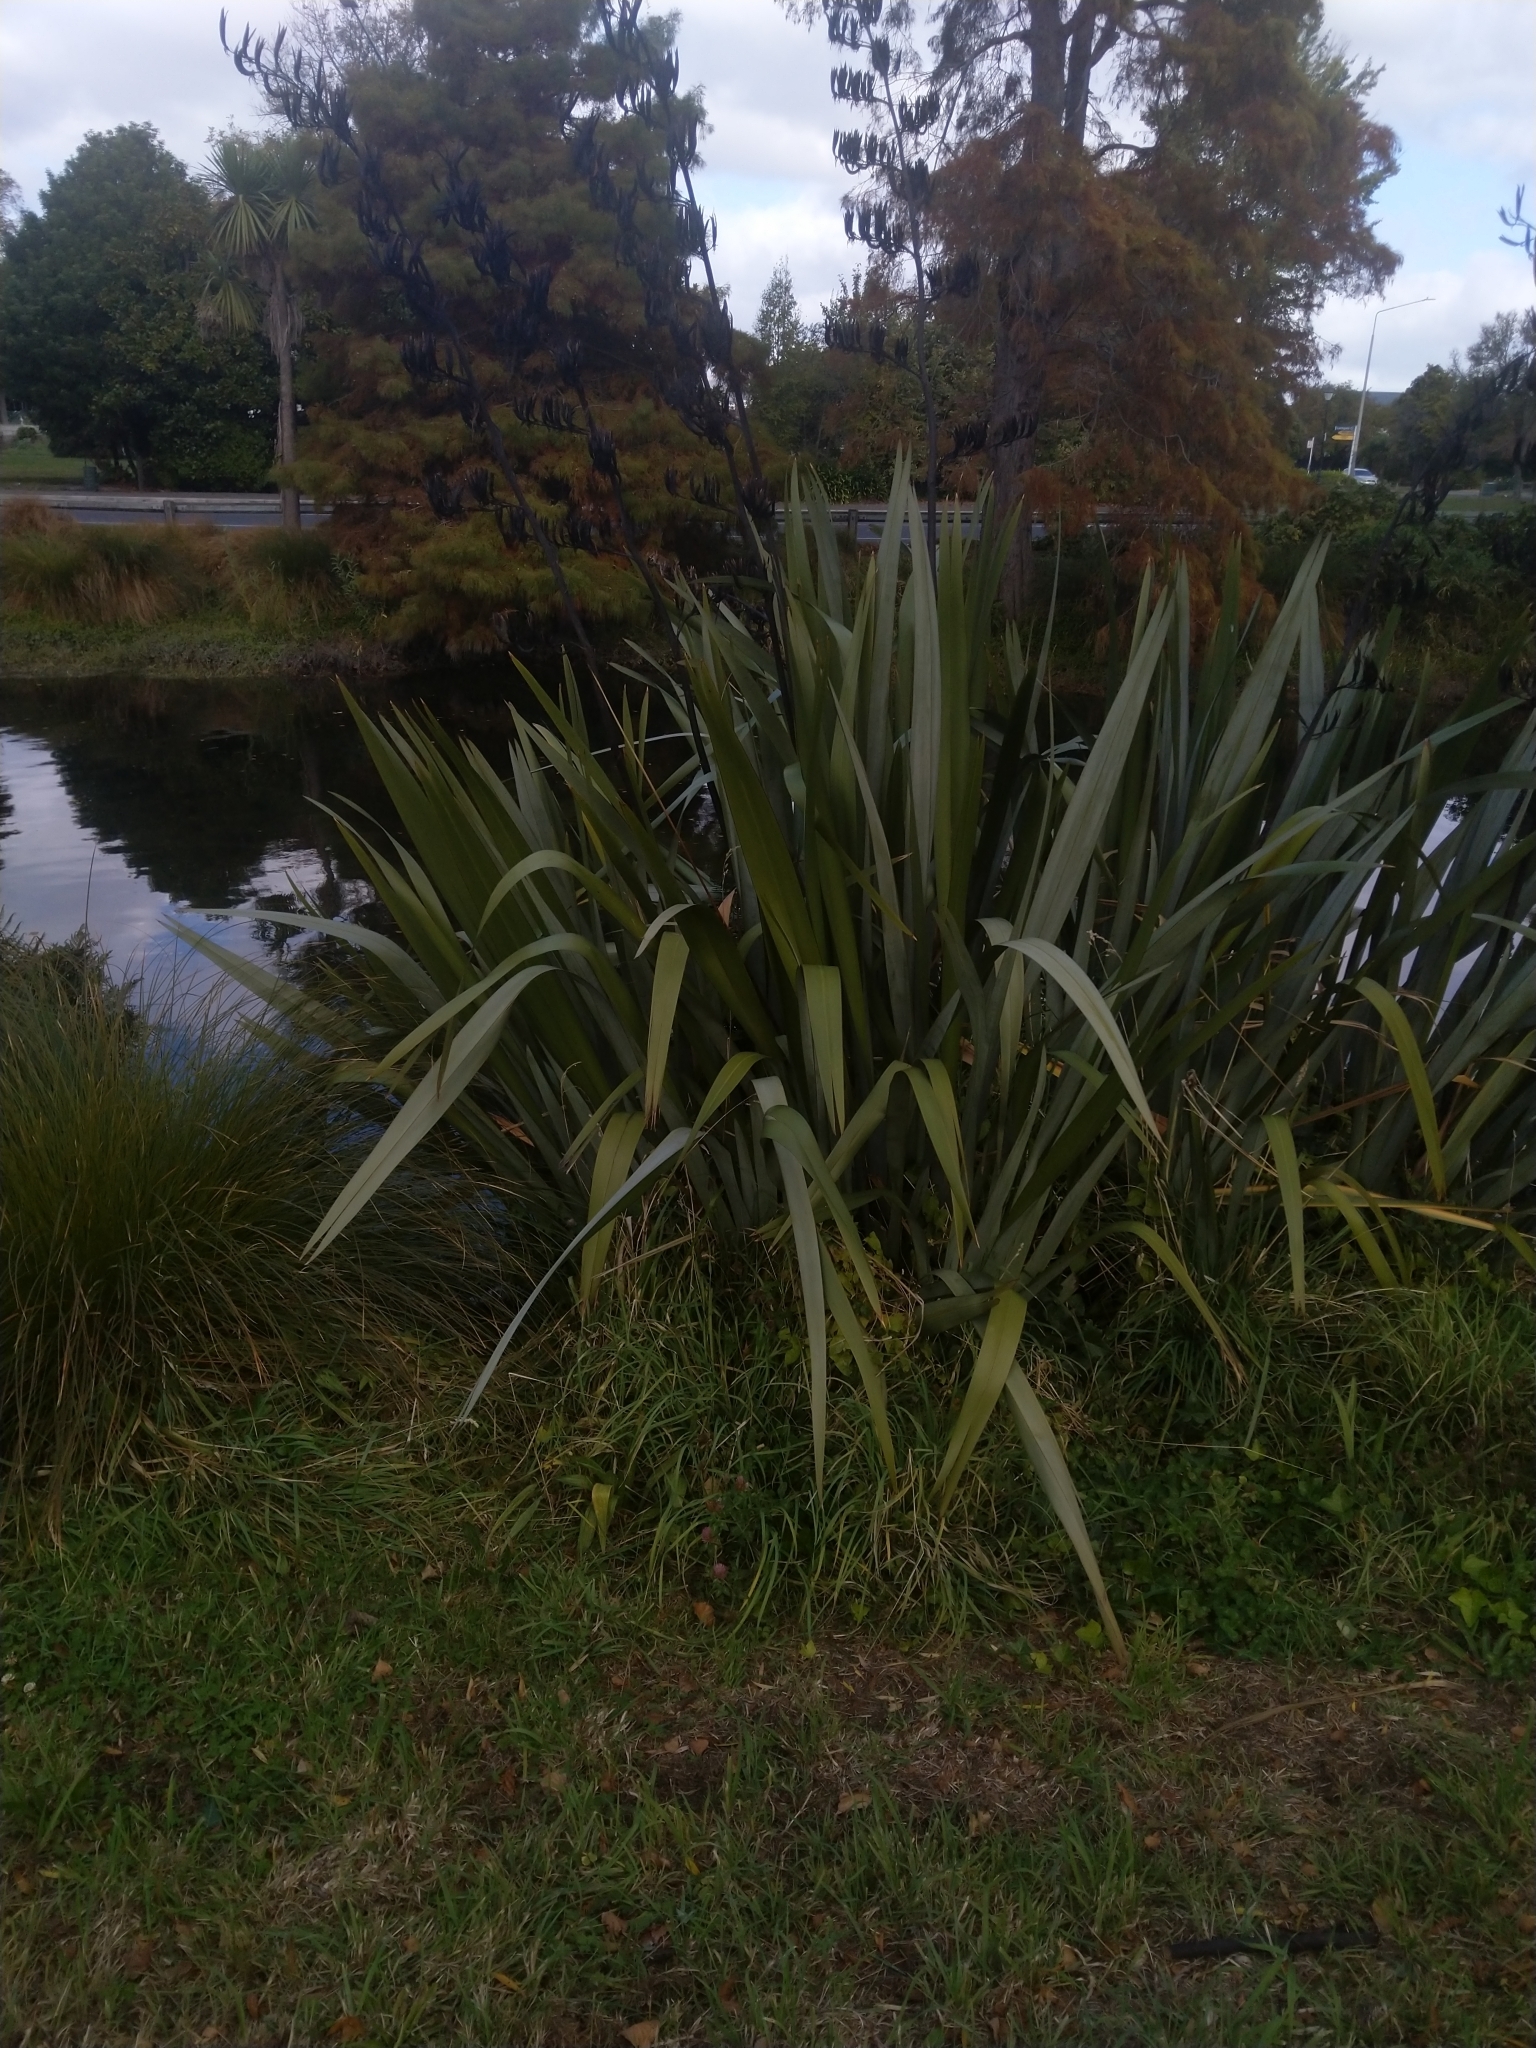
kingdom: Plantae
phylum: Tracheophyta
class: Liliopsida
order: Asparagales
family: Asphodelaceae
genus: Phormium
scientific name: Phormium tenax
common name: New zealand flax
